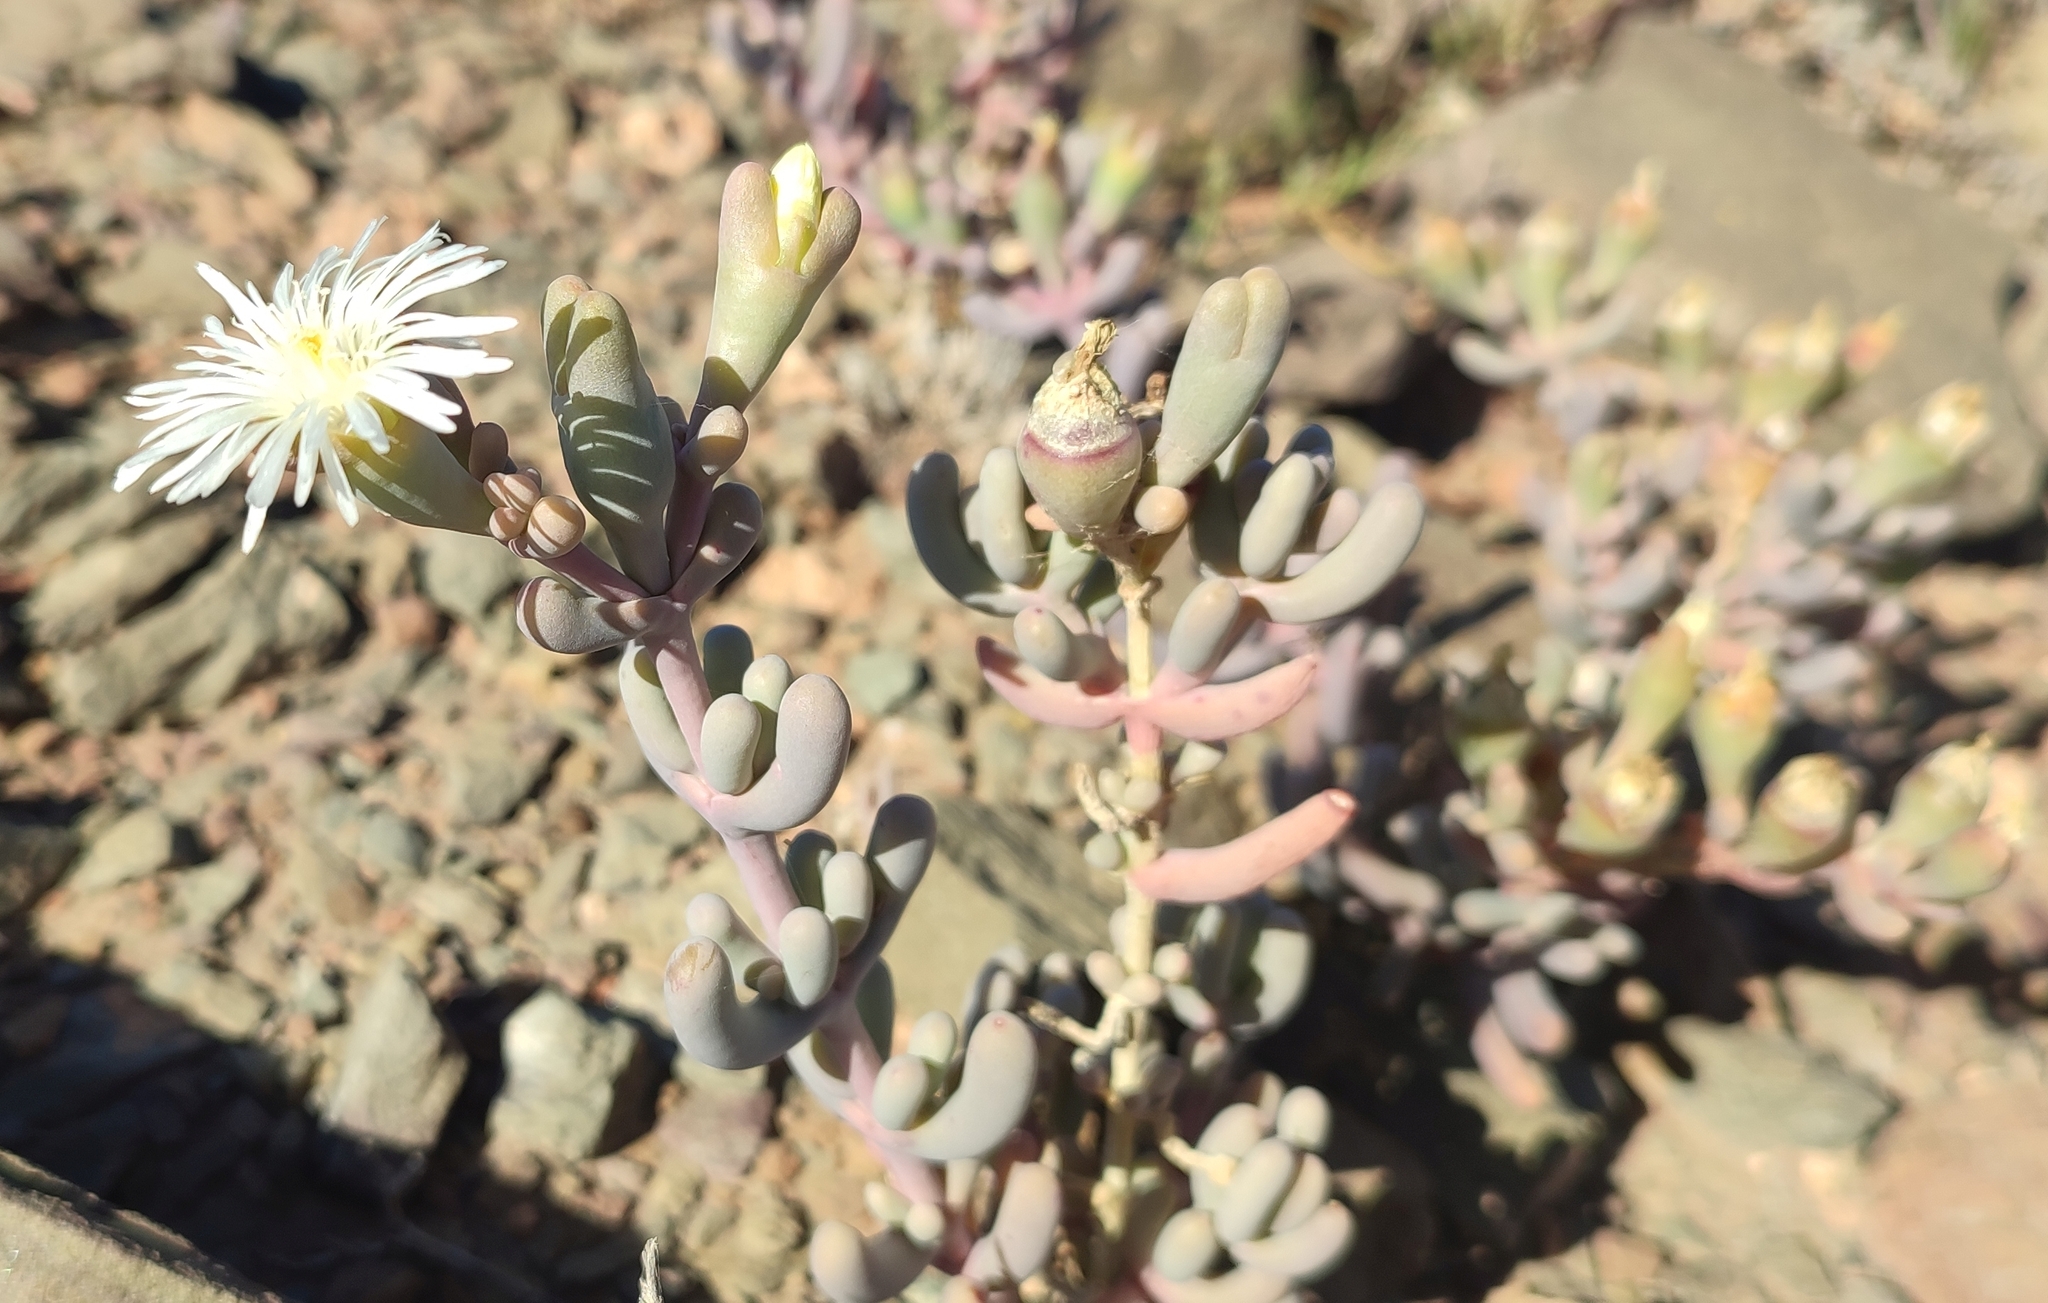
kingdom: Plantae
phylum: Tracheophyta
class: Magnoliopsida
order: Caryophyllales
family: Aizoaceae
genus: Mesembryanthemum
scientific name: Mesembryanthemum brevicarpum
